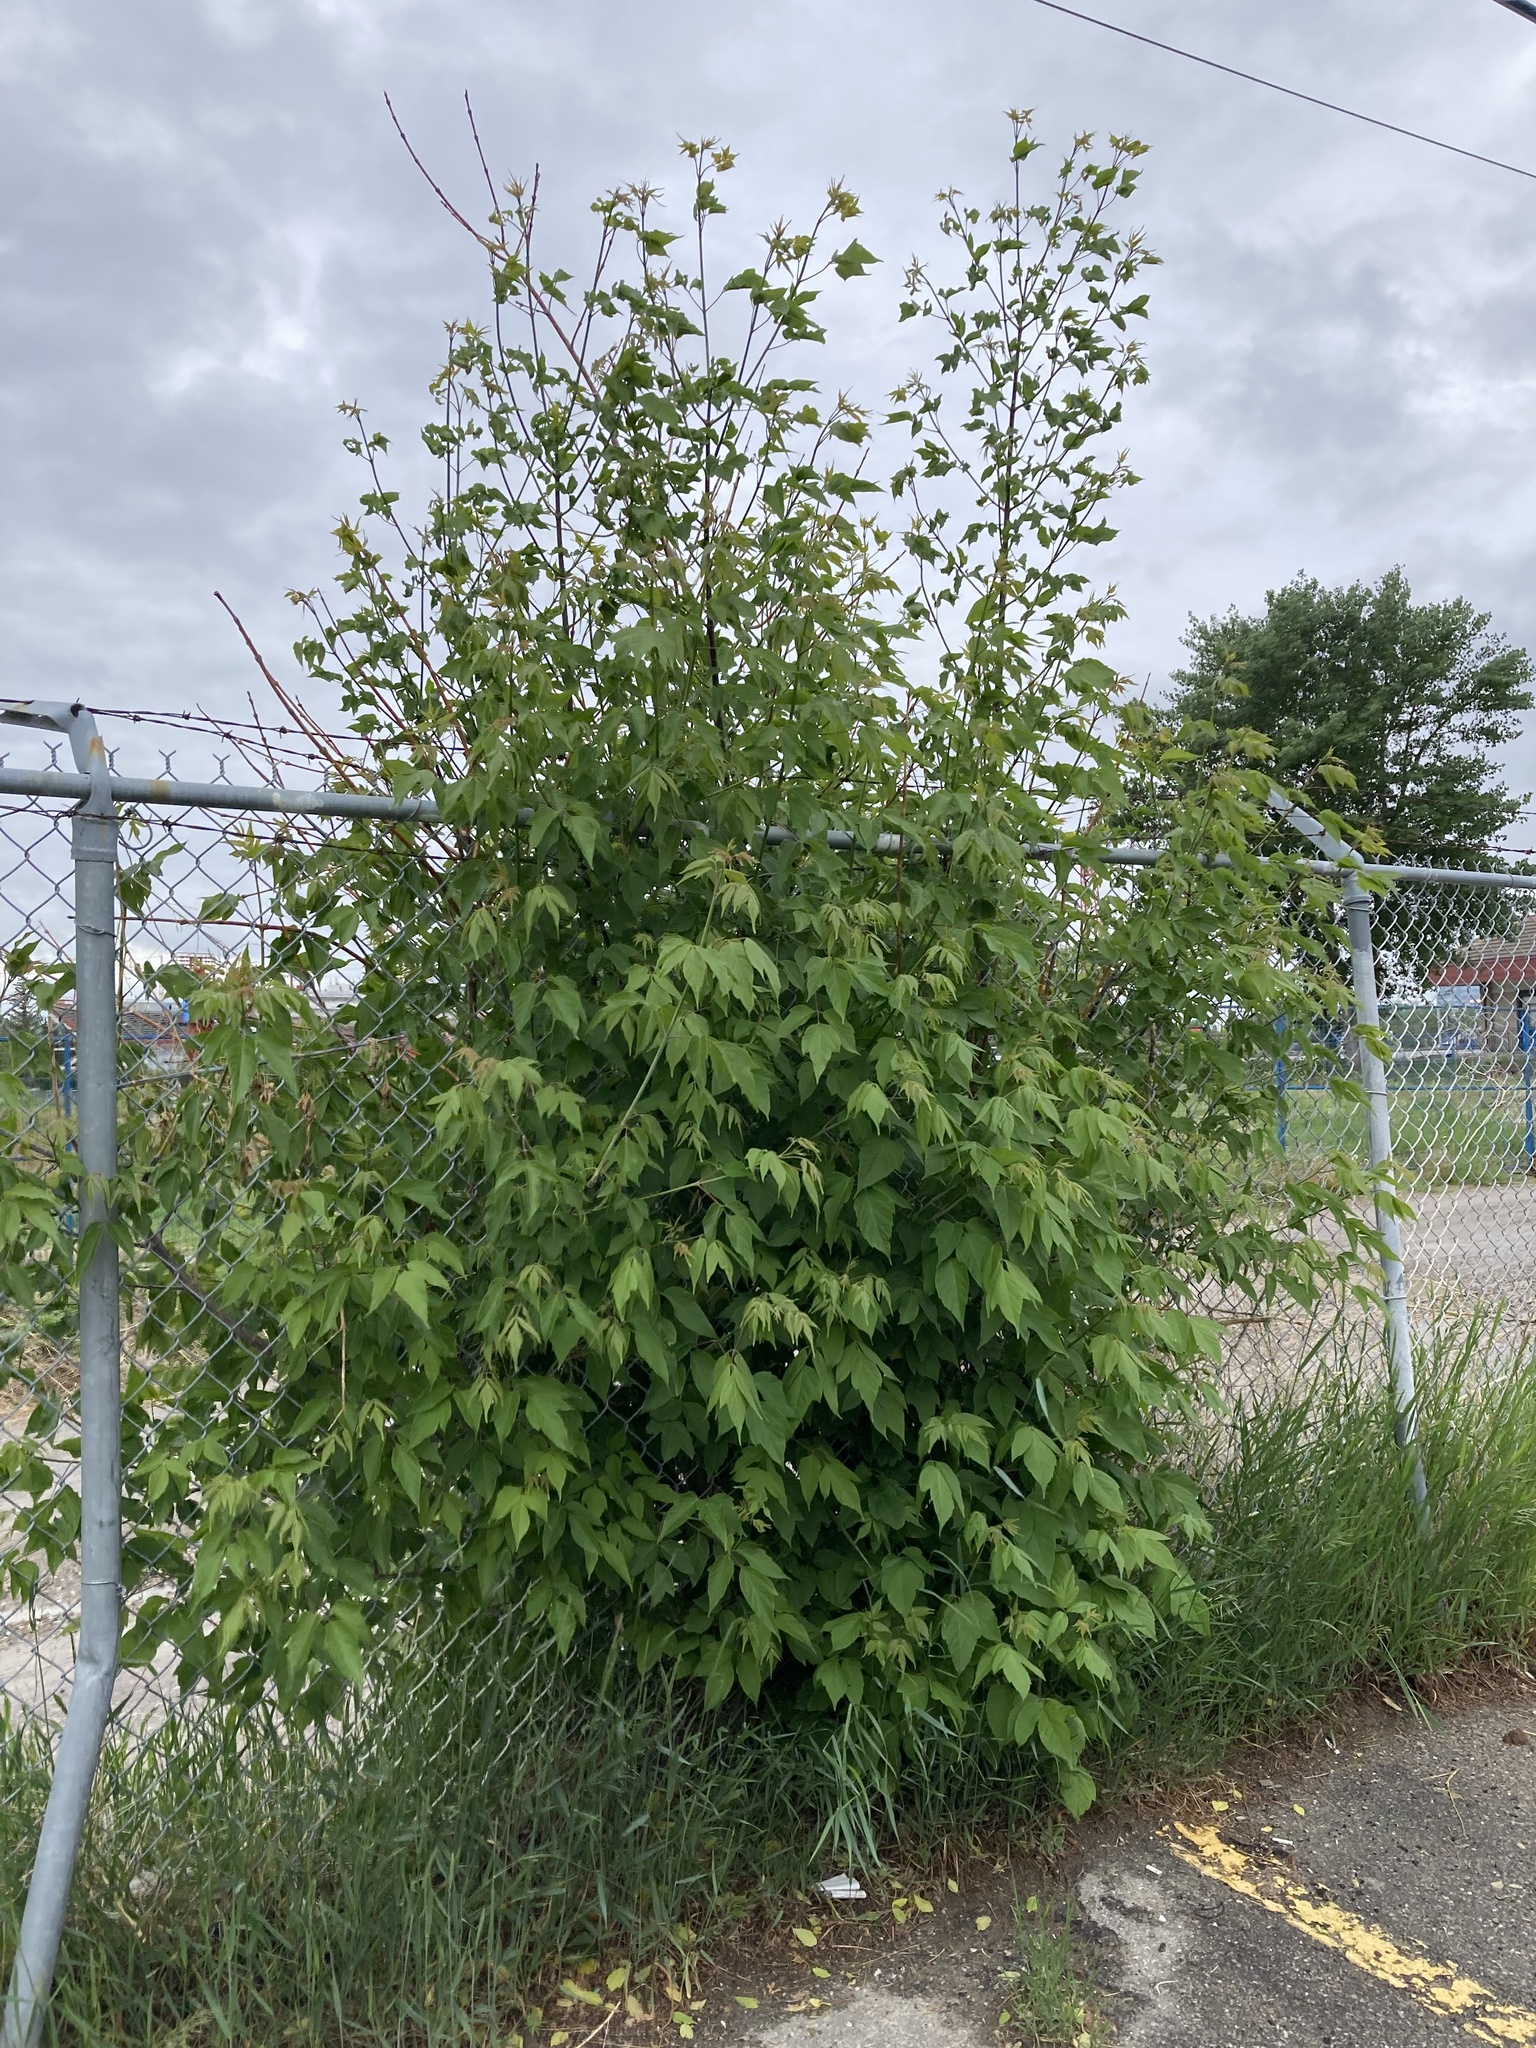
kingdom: Plantae
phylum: Tracheophyta
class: Magnoliopsida
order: Sapindales
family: Sapindaceae
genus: Acer
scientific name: Acer negundo
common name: Ashleaf maple
